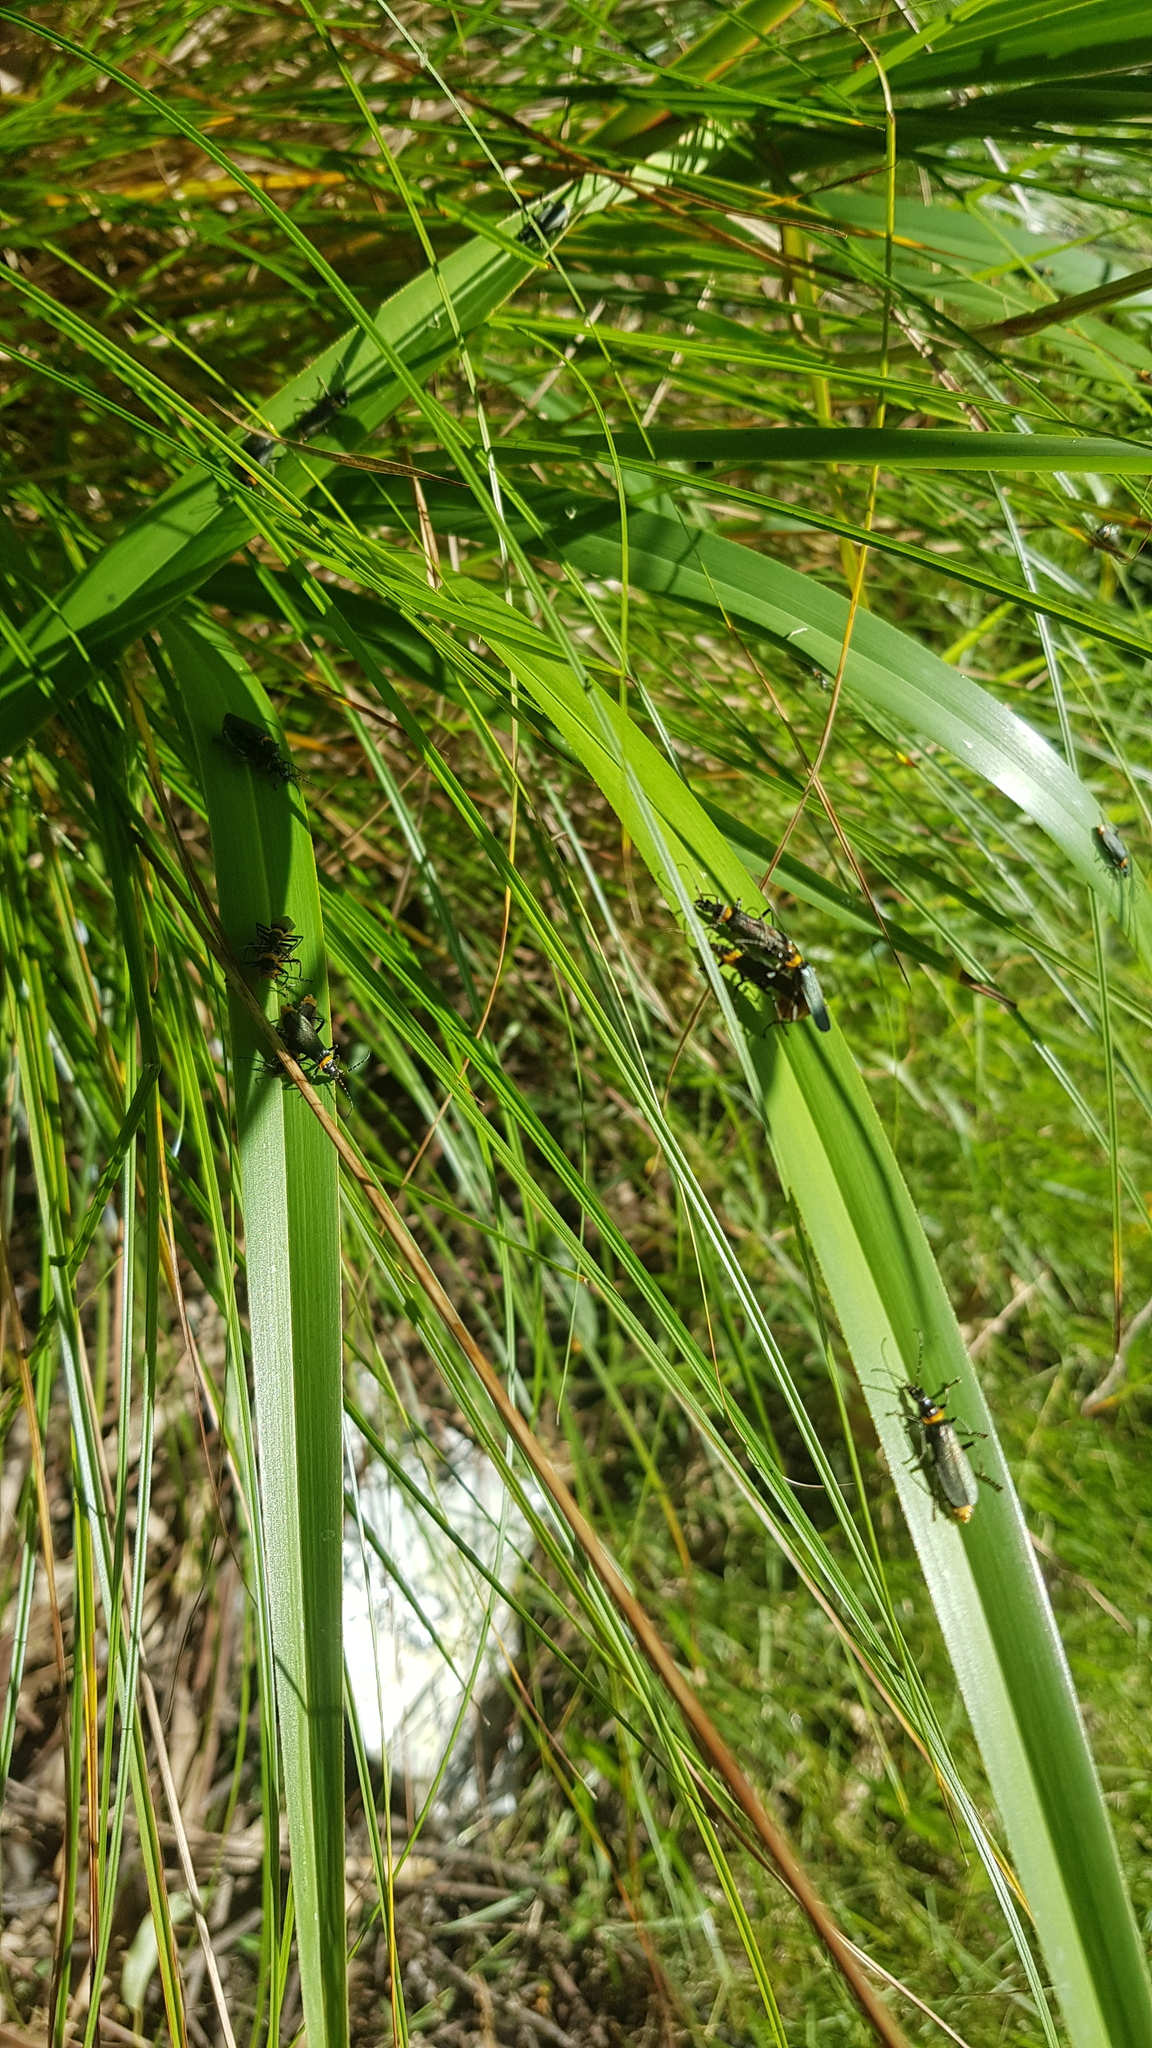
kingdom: Animalia
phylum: Arthropoda
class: Insecta
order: Coleoptera
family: Cantharidae
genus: Chauliognathus
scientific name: Chauliognathus
